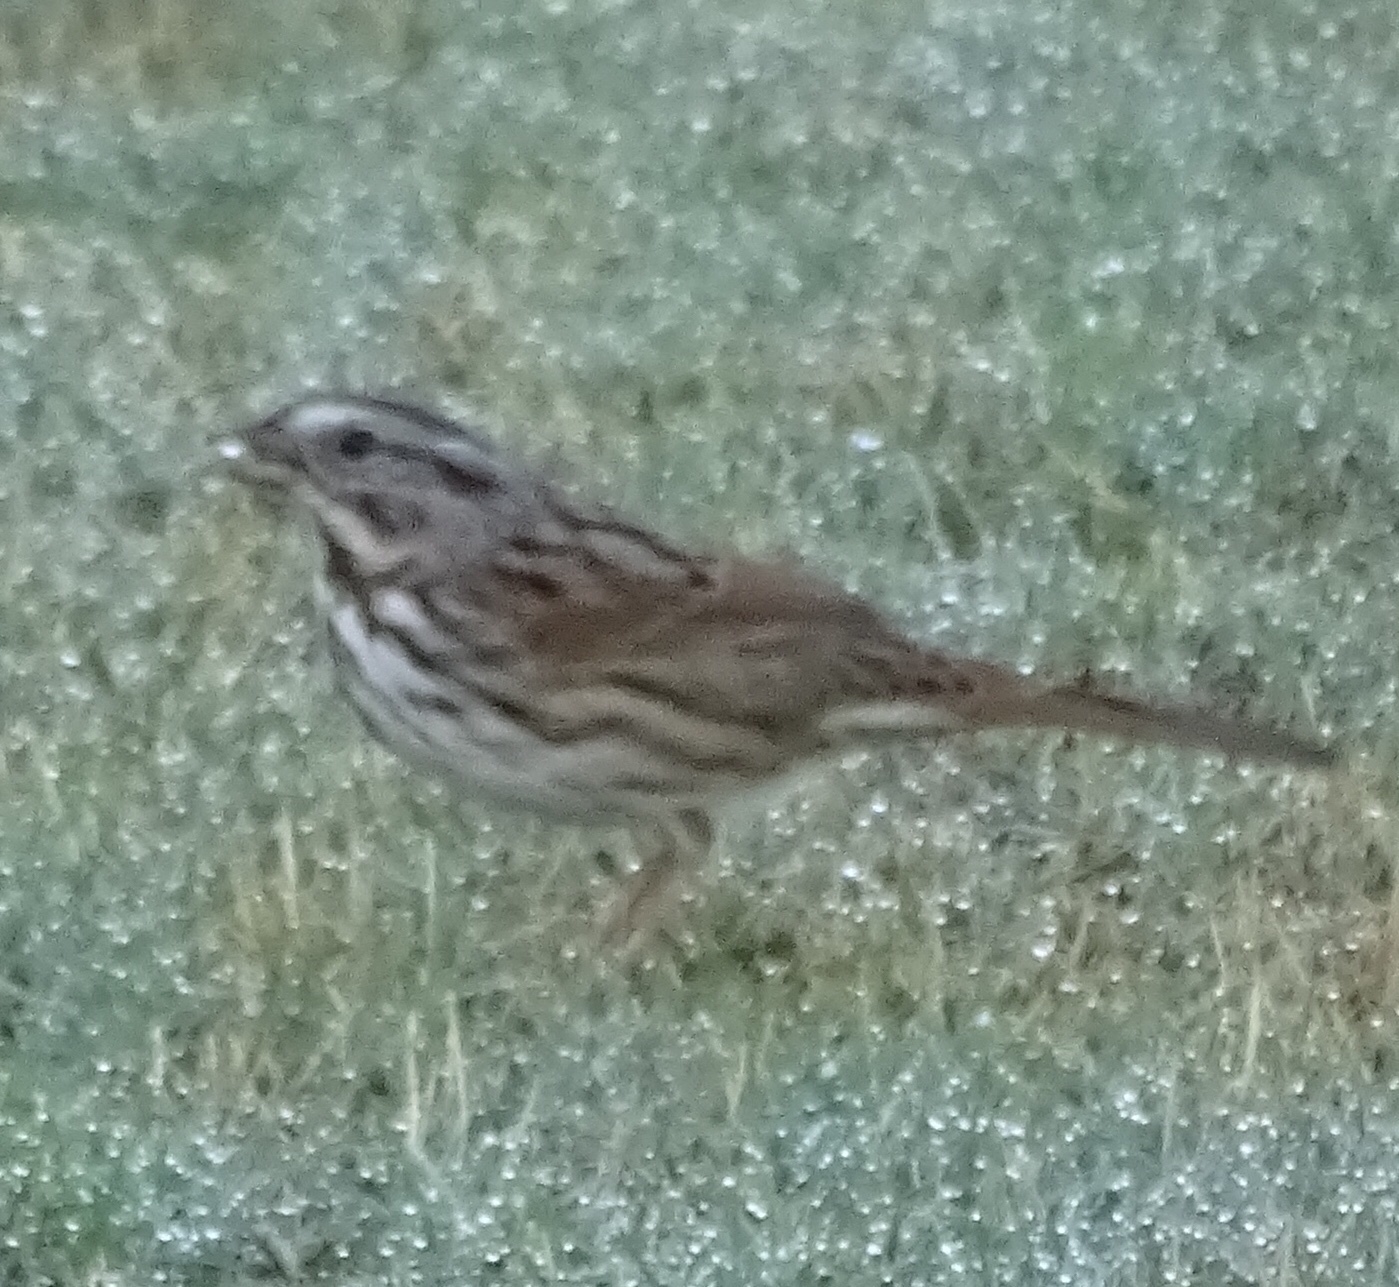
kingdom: Animalia
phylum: Chordata
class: Aves
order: Passeriformes
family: Passerellidae
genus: Melospiza
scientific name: Melospiza melodia
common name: Song sparrow
